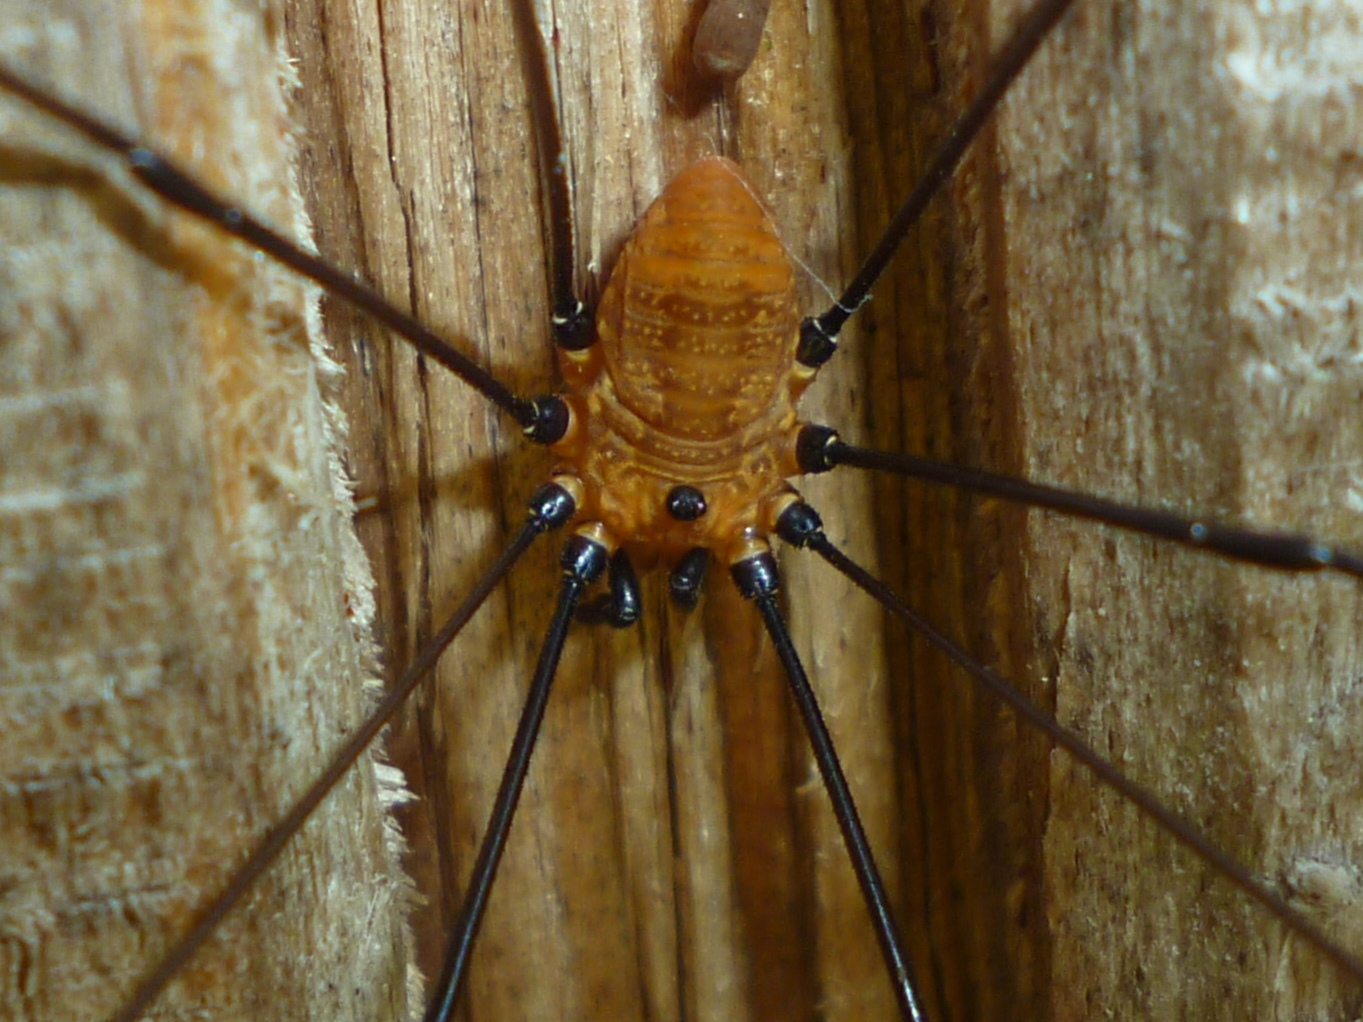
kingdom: Animalia
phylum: Arthropoda
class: Arachnida
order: Opiliones
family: Sclerosomatidae
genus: Leiobunum
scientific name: Leiobunum nigropalpi
